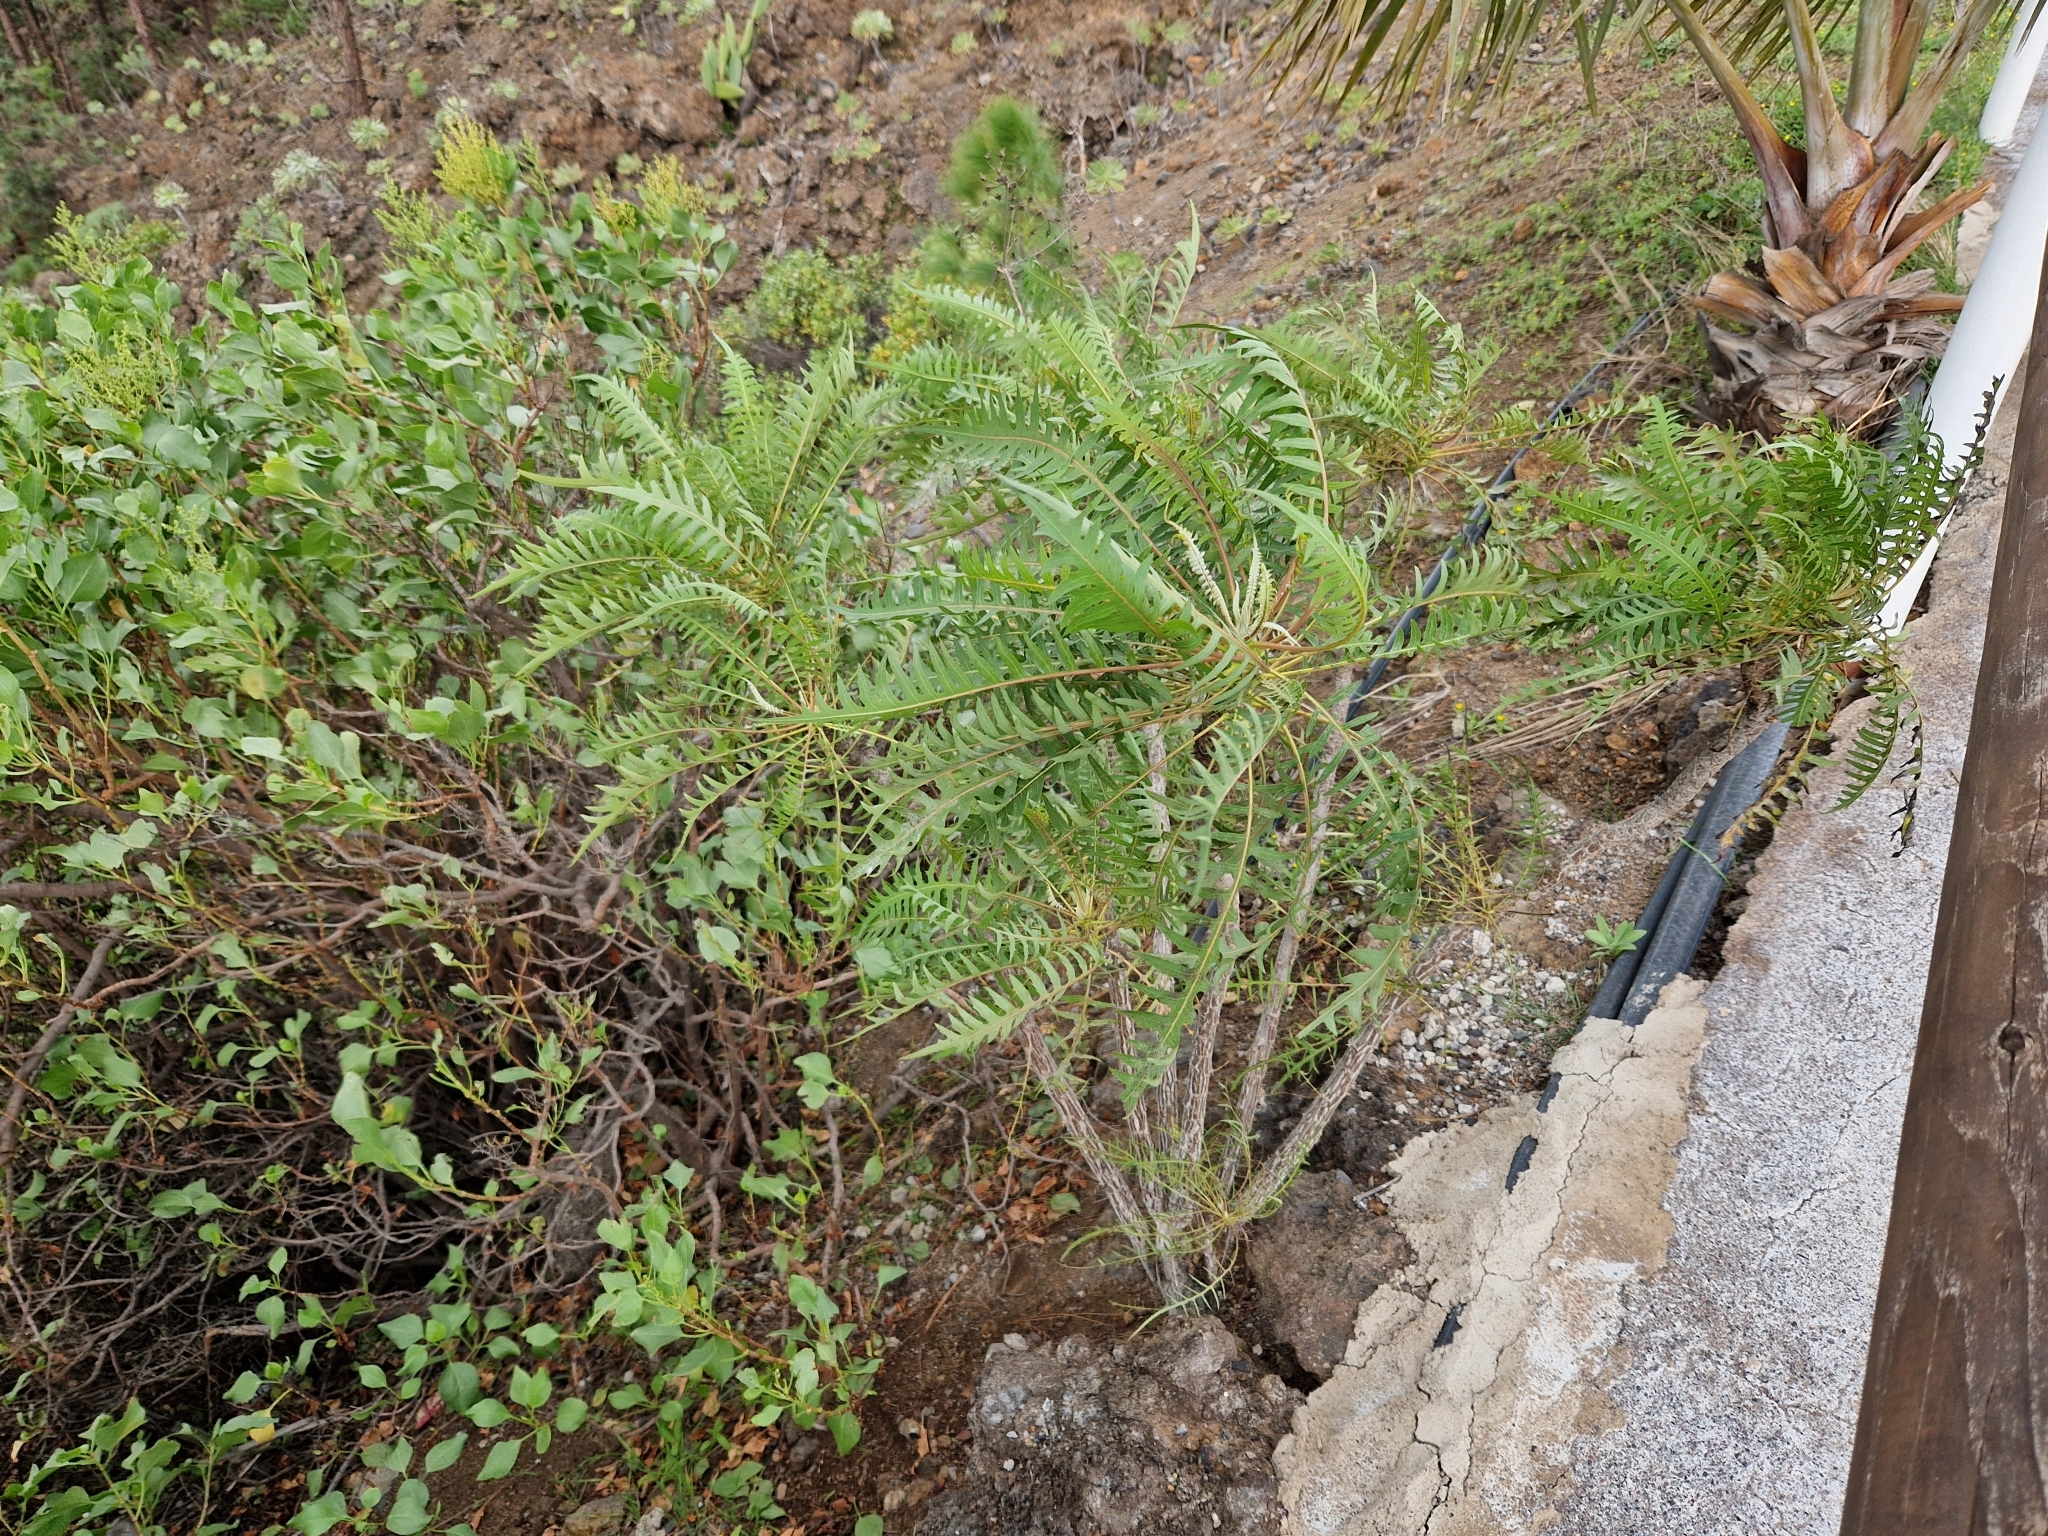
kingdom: Plantae
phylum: Tracheophyta
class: Magnoliopsida
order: Asterales
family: Asteraceae
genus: Sonchus
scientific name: Sonchus canariensis
